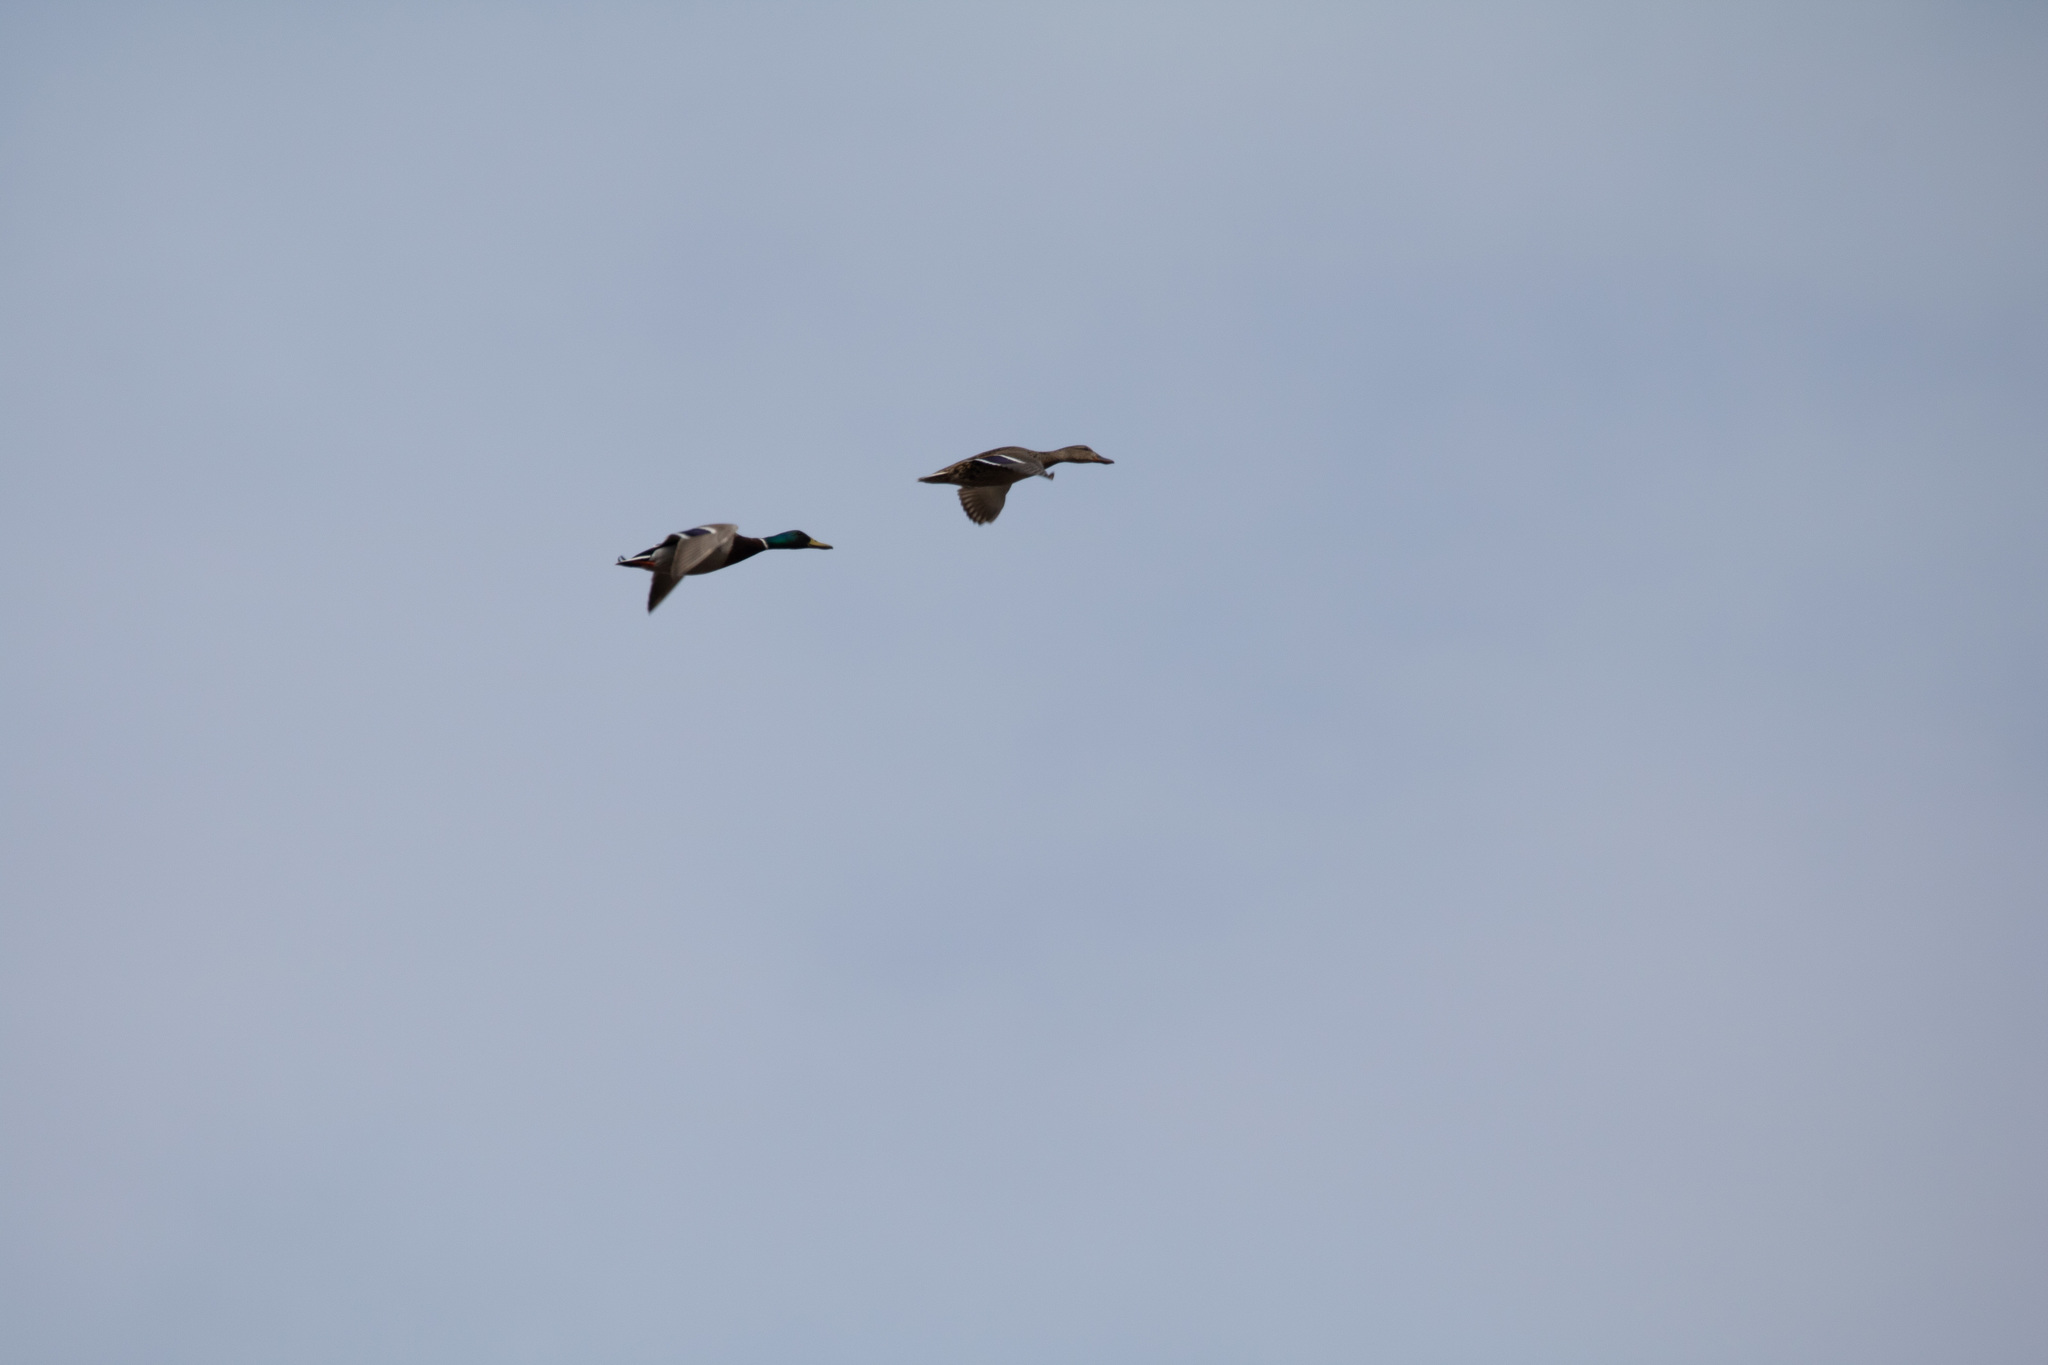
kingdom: Animalia
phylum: Chordata
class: Aves
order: Anseriformes
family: Anatidae
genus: Anas
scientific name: Anas platyrhynchos
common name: Mallard
